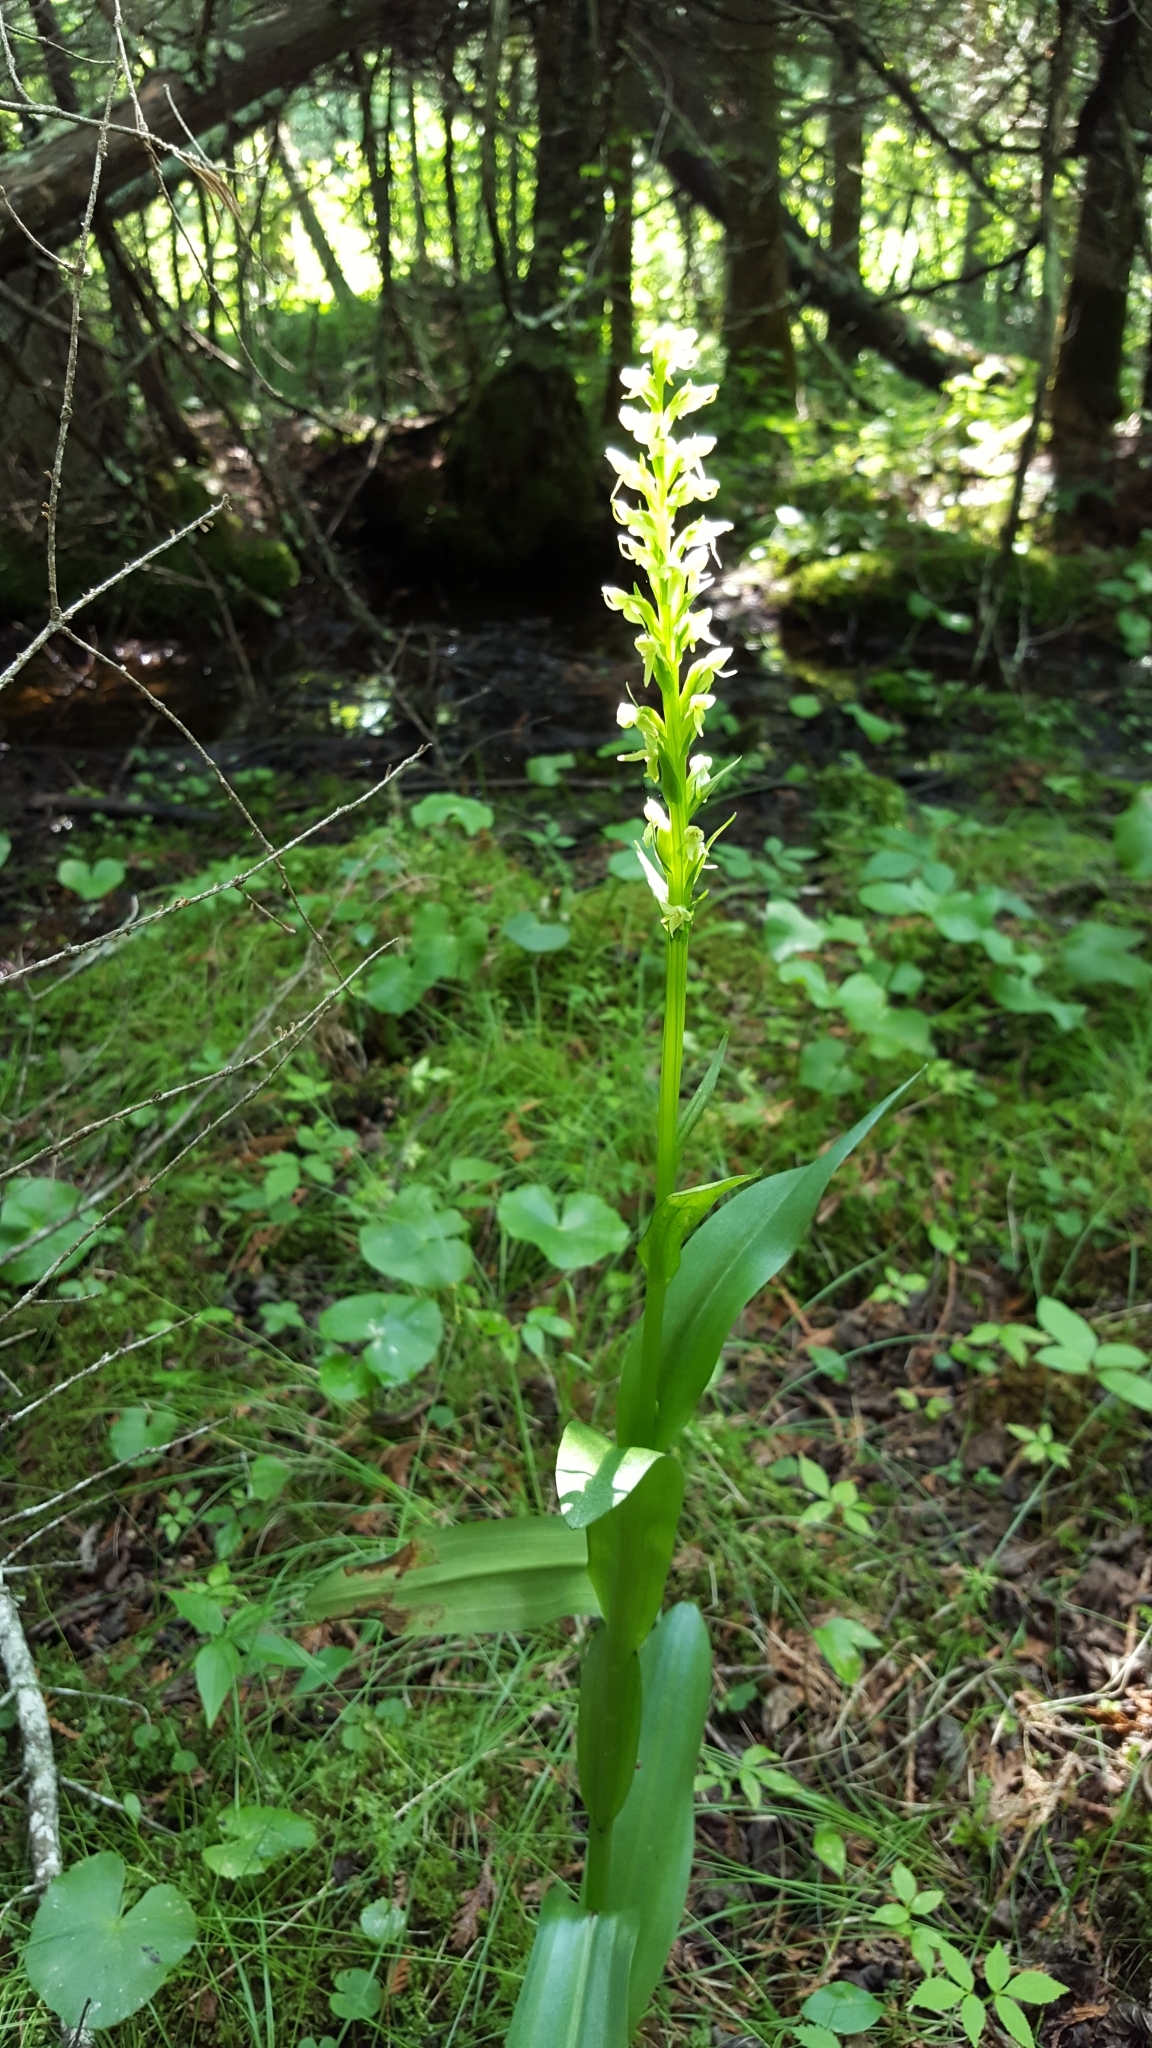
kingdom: Plantae
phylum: Tracheophyta
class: Liliopsida
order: Asparagales
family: Orchidaceae
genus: Platanthera
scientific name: Platanthera huronensis
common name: Fragrant green orchid
